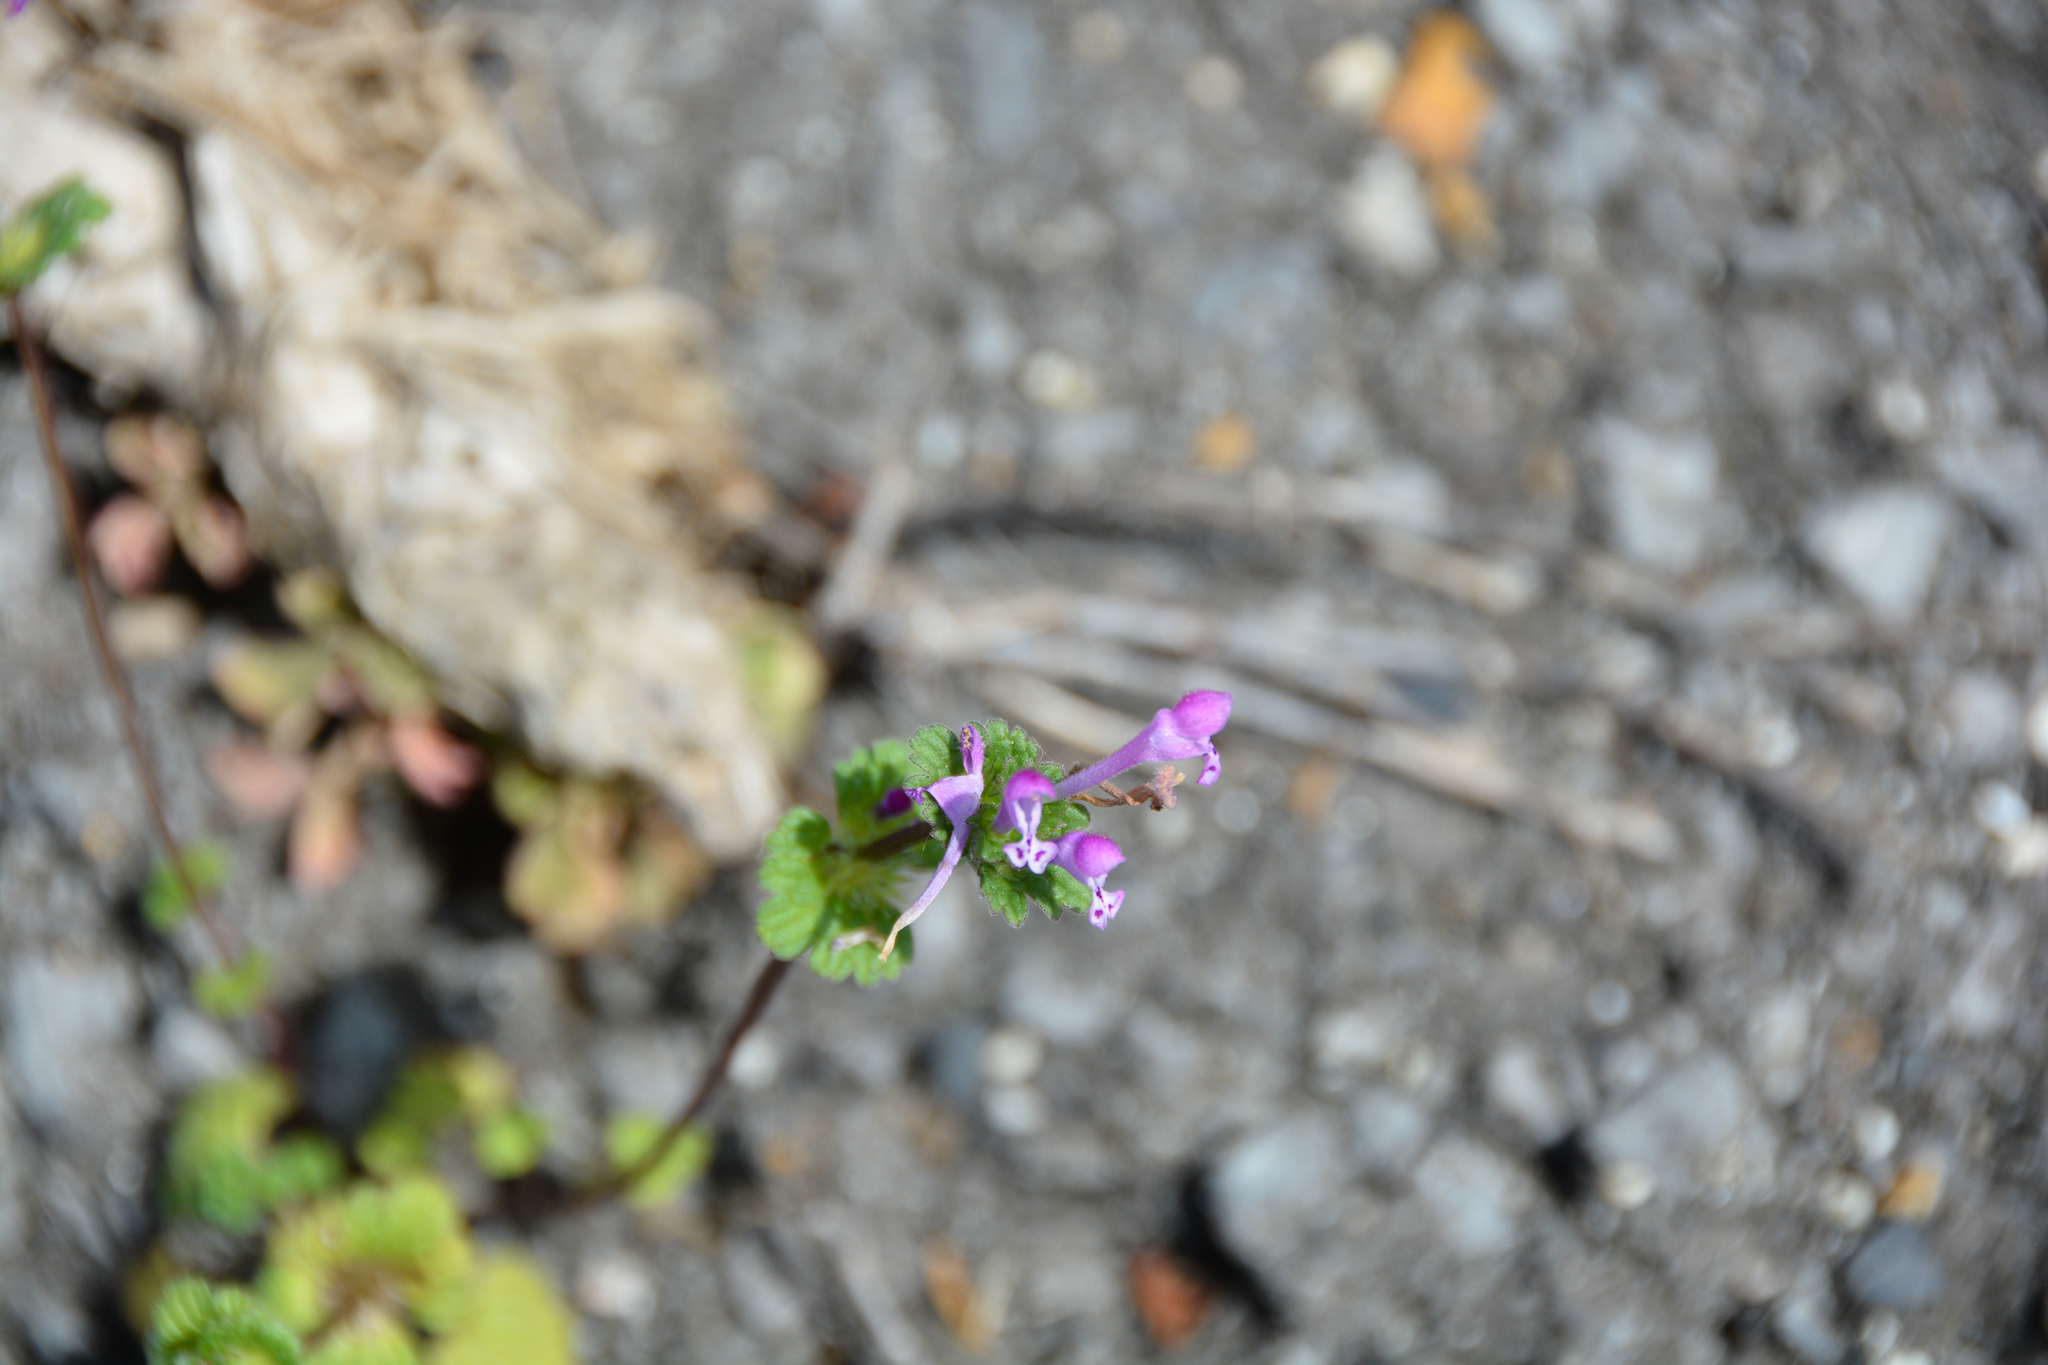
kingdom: Plantae
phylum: Tracheophyta
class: Magnoliopsida
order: Lamiales
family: Lamiaceae
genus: Lamium
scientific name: Lamium amplexicaule
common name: Henbit dead-nettle
